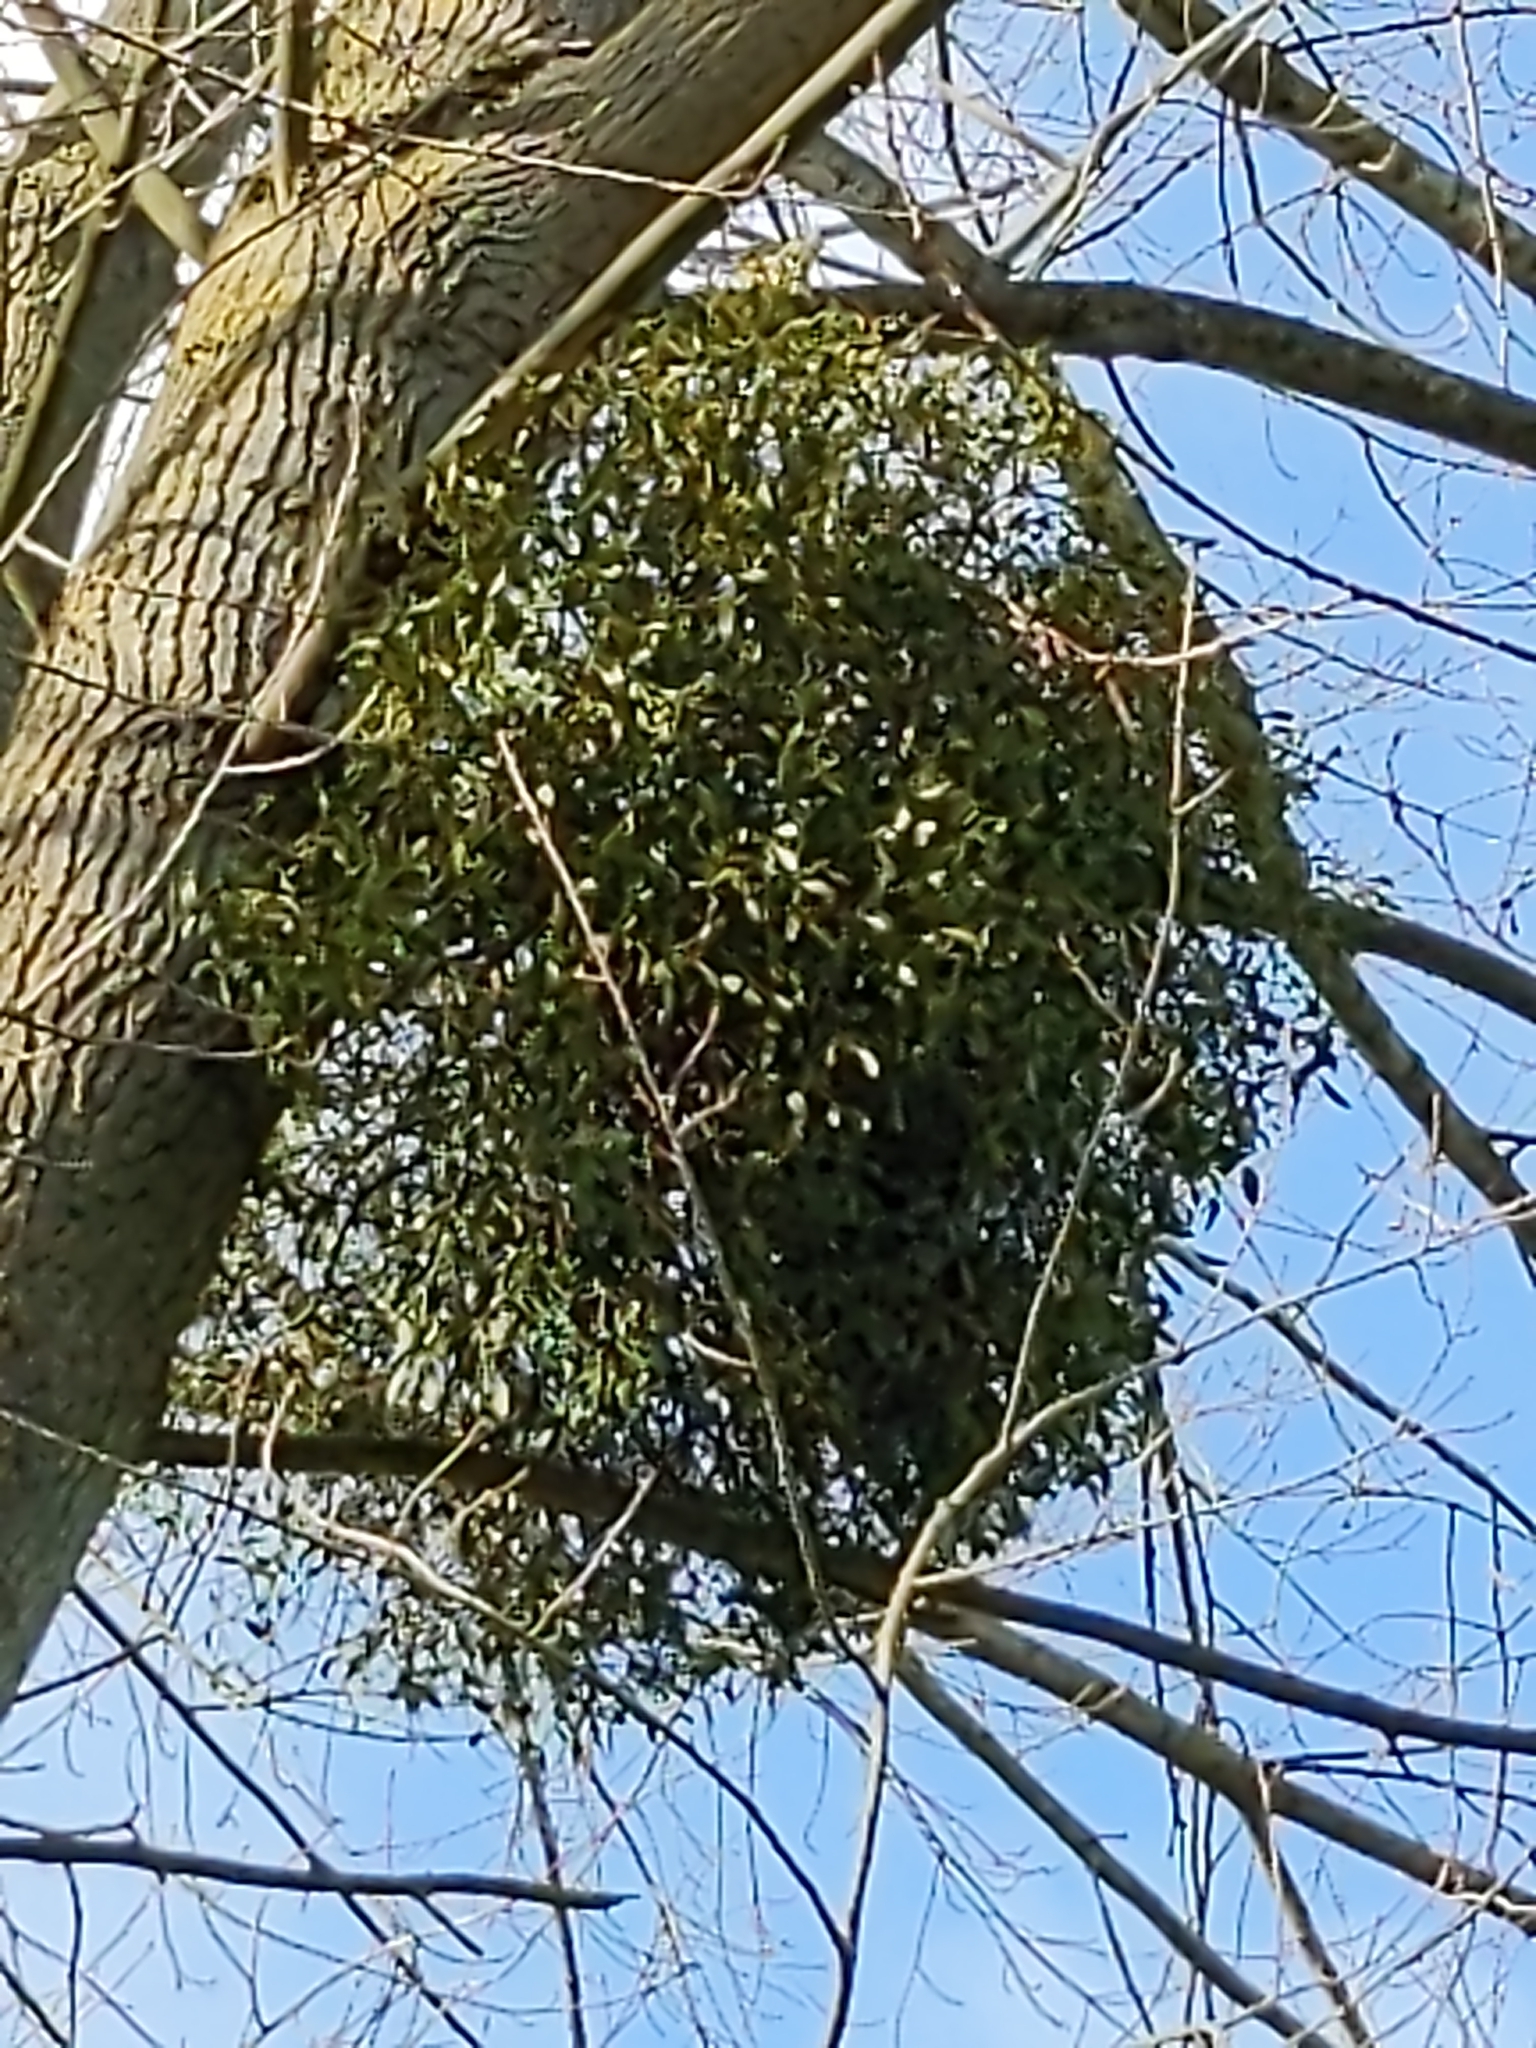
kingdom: Plantae
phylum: Tracheophyta
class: Magnoliopsida
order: Santalales
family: Viscaceae
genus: Viscum
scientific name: Viscum album
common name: Mistletoe
